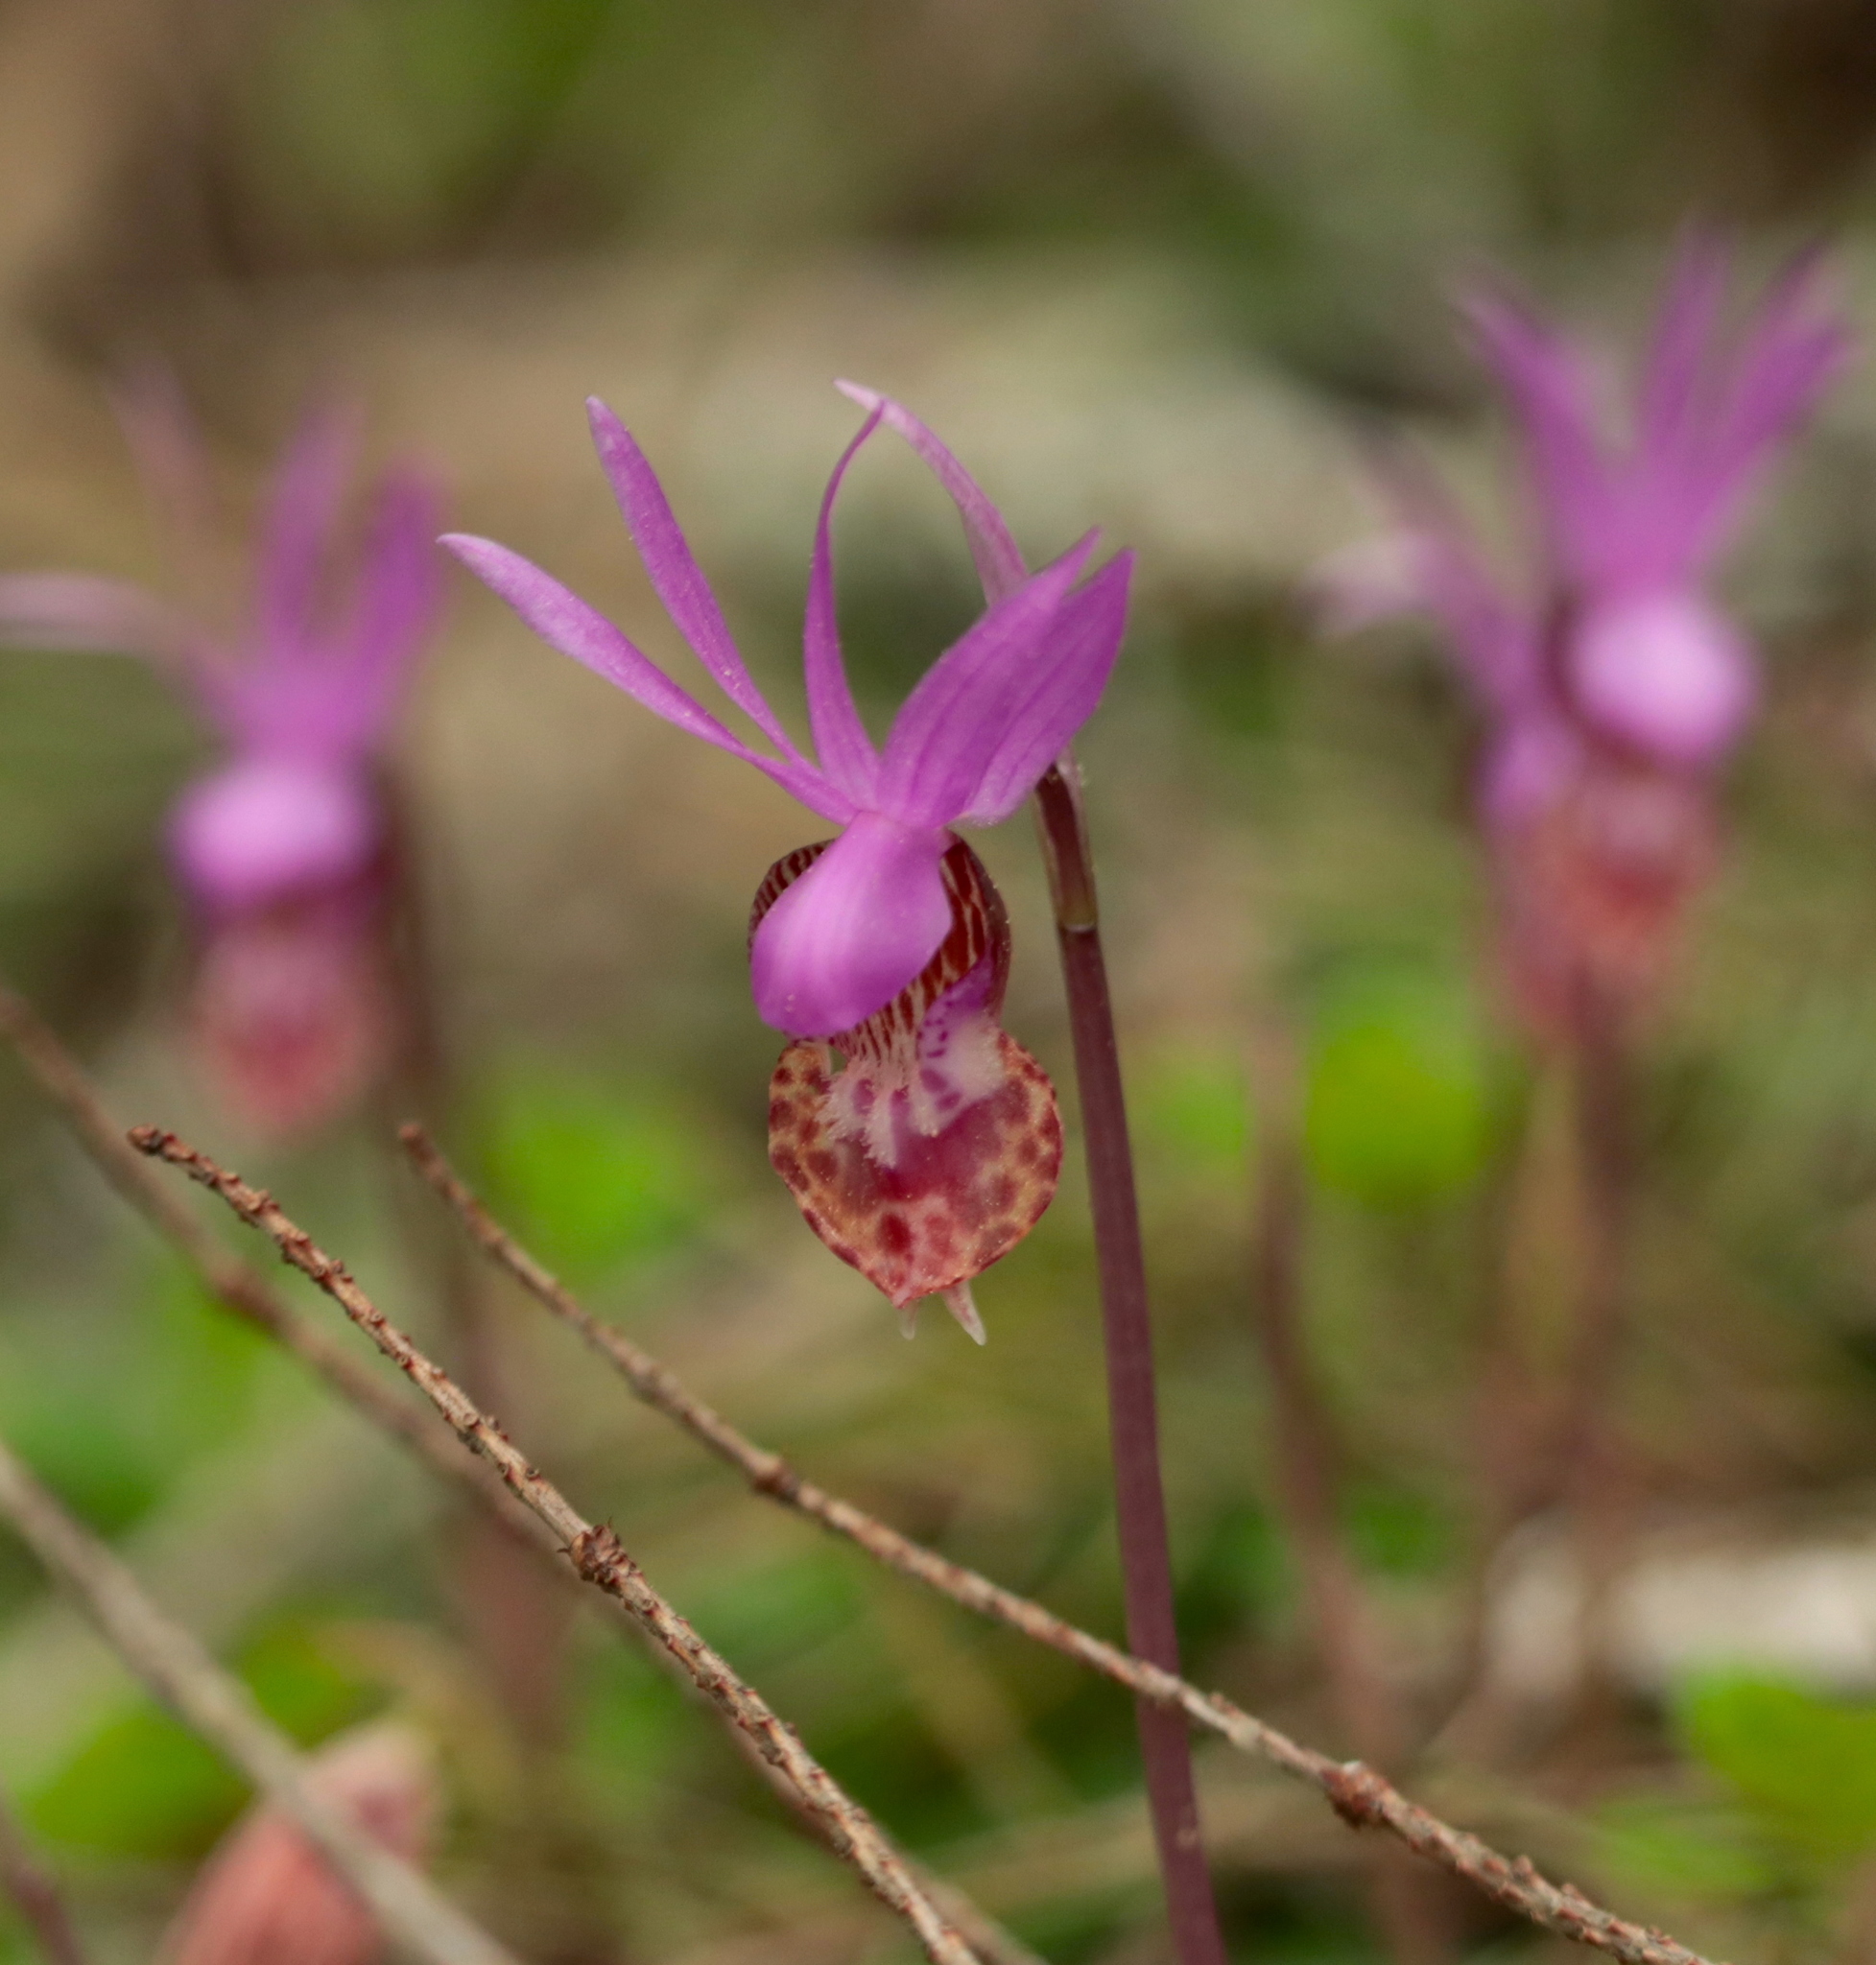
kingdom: Plantae
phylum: Tracheophyta
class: Liliopsida
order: Asparagales
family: Orchidaceae
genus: Calypso
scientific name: Calypso bulbosa
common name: Calypso
